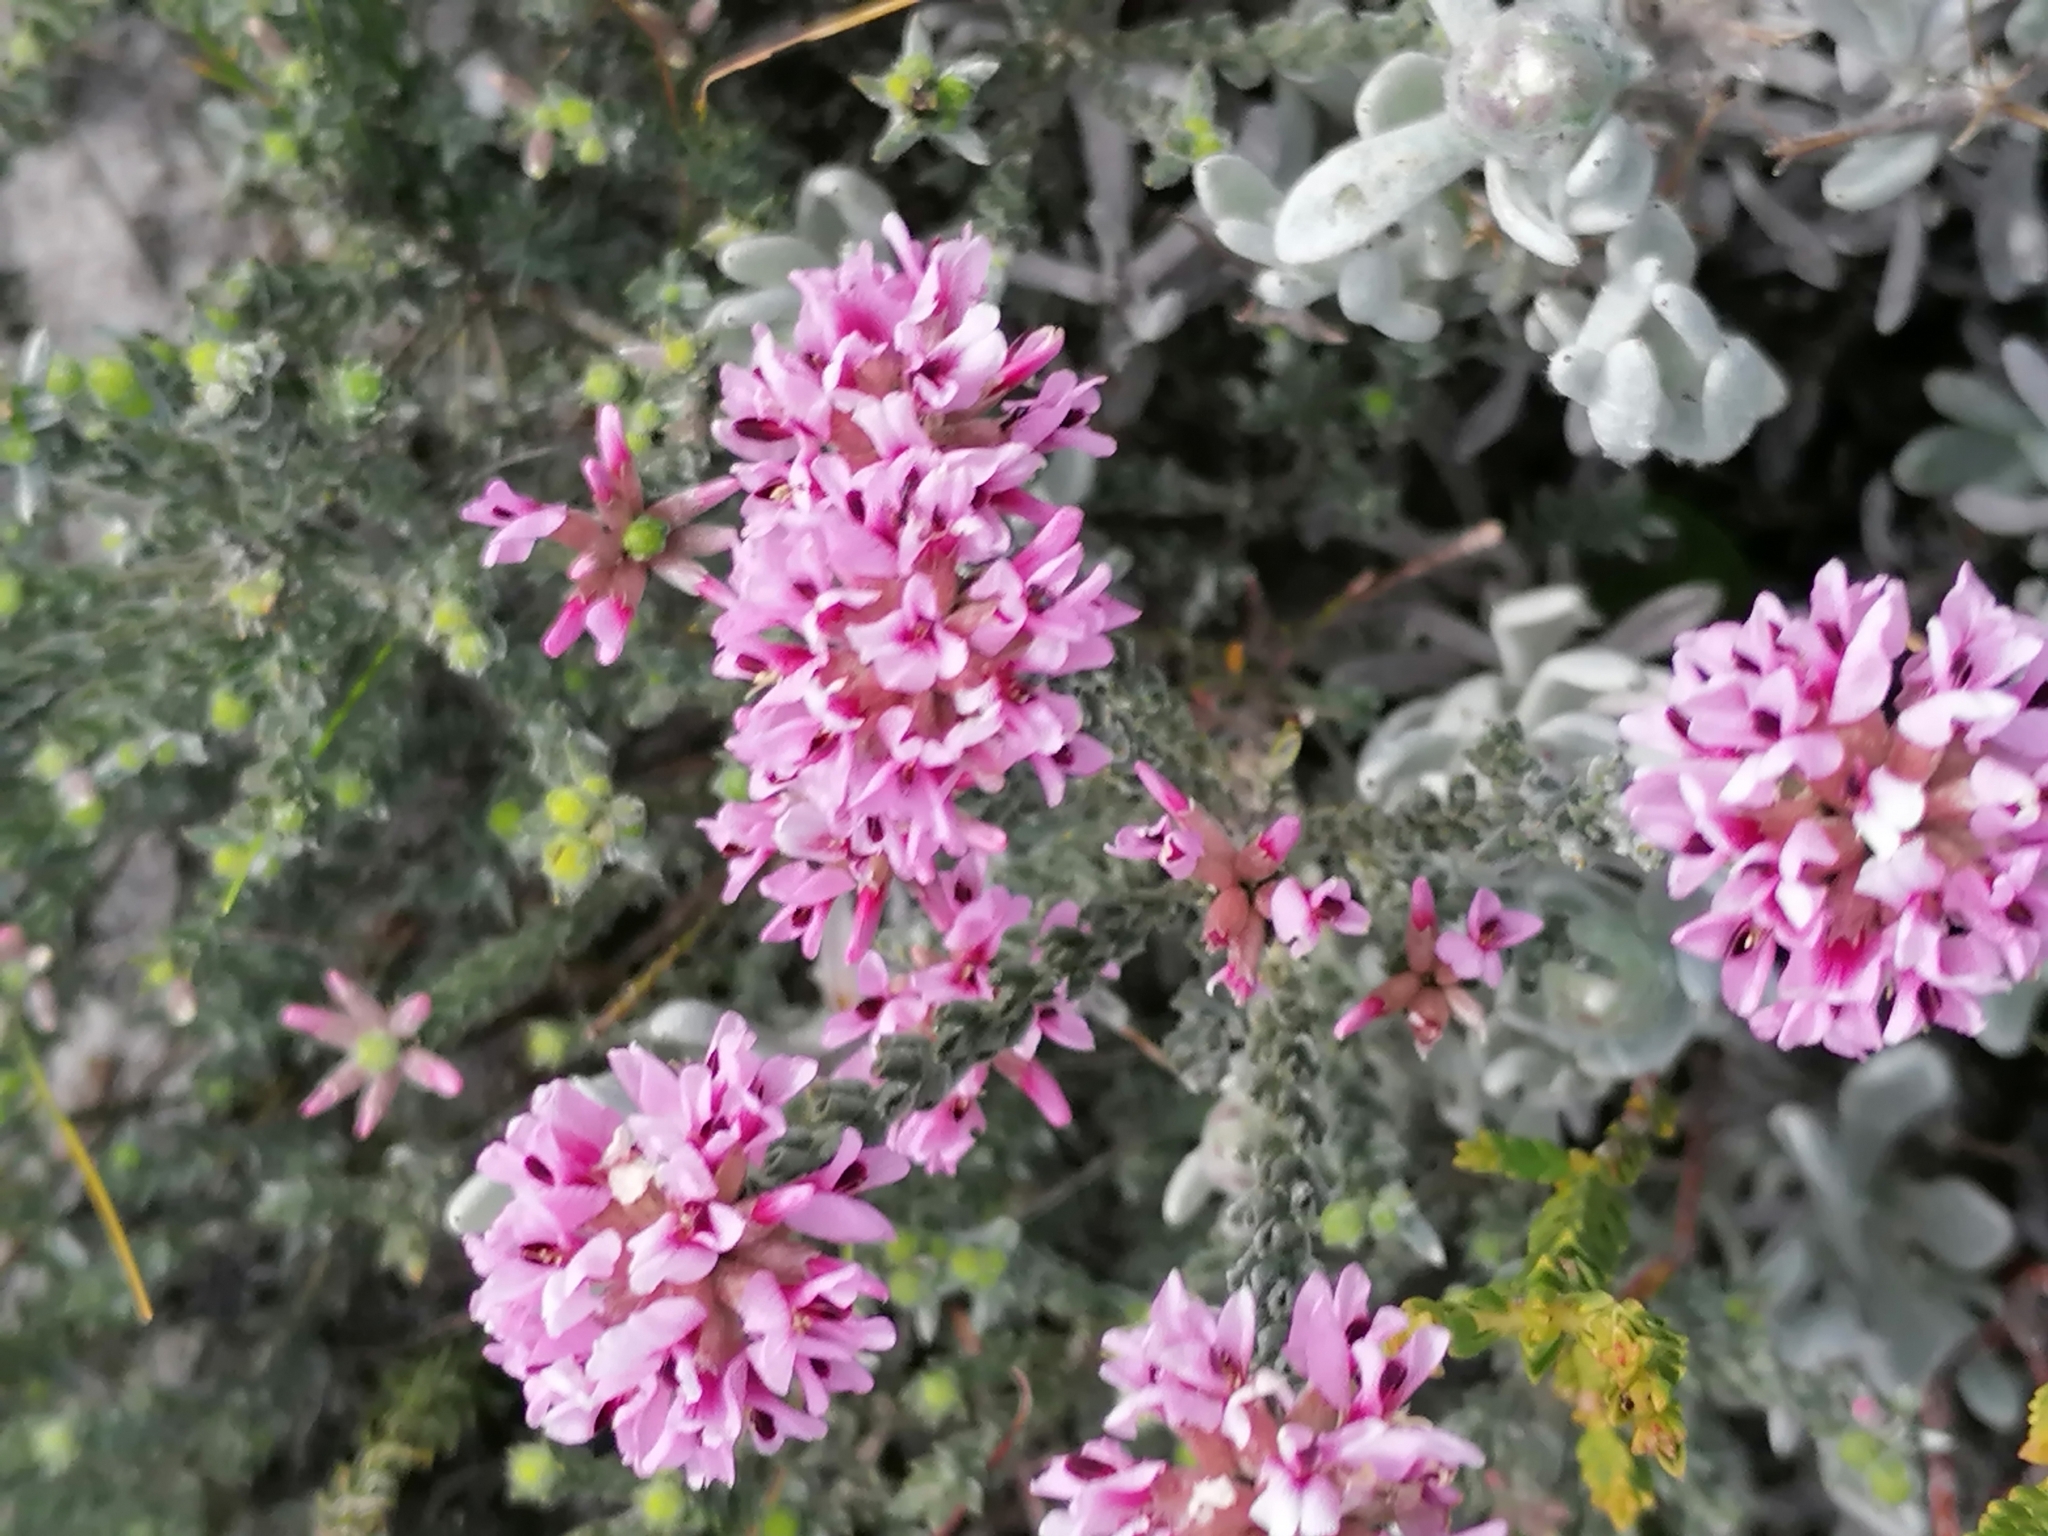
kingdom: Plantae
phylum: Tracheophyta
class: Magnoliopsida
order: Fabales
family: Fabaceae
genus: Amphithalea
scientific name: Amphithalea ericifolia
